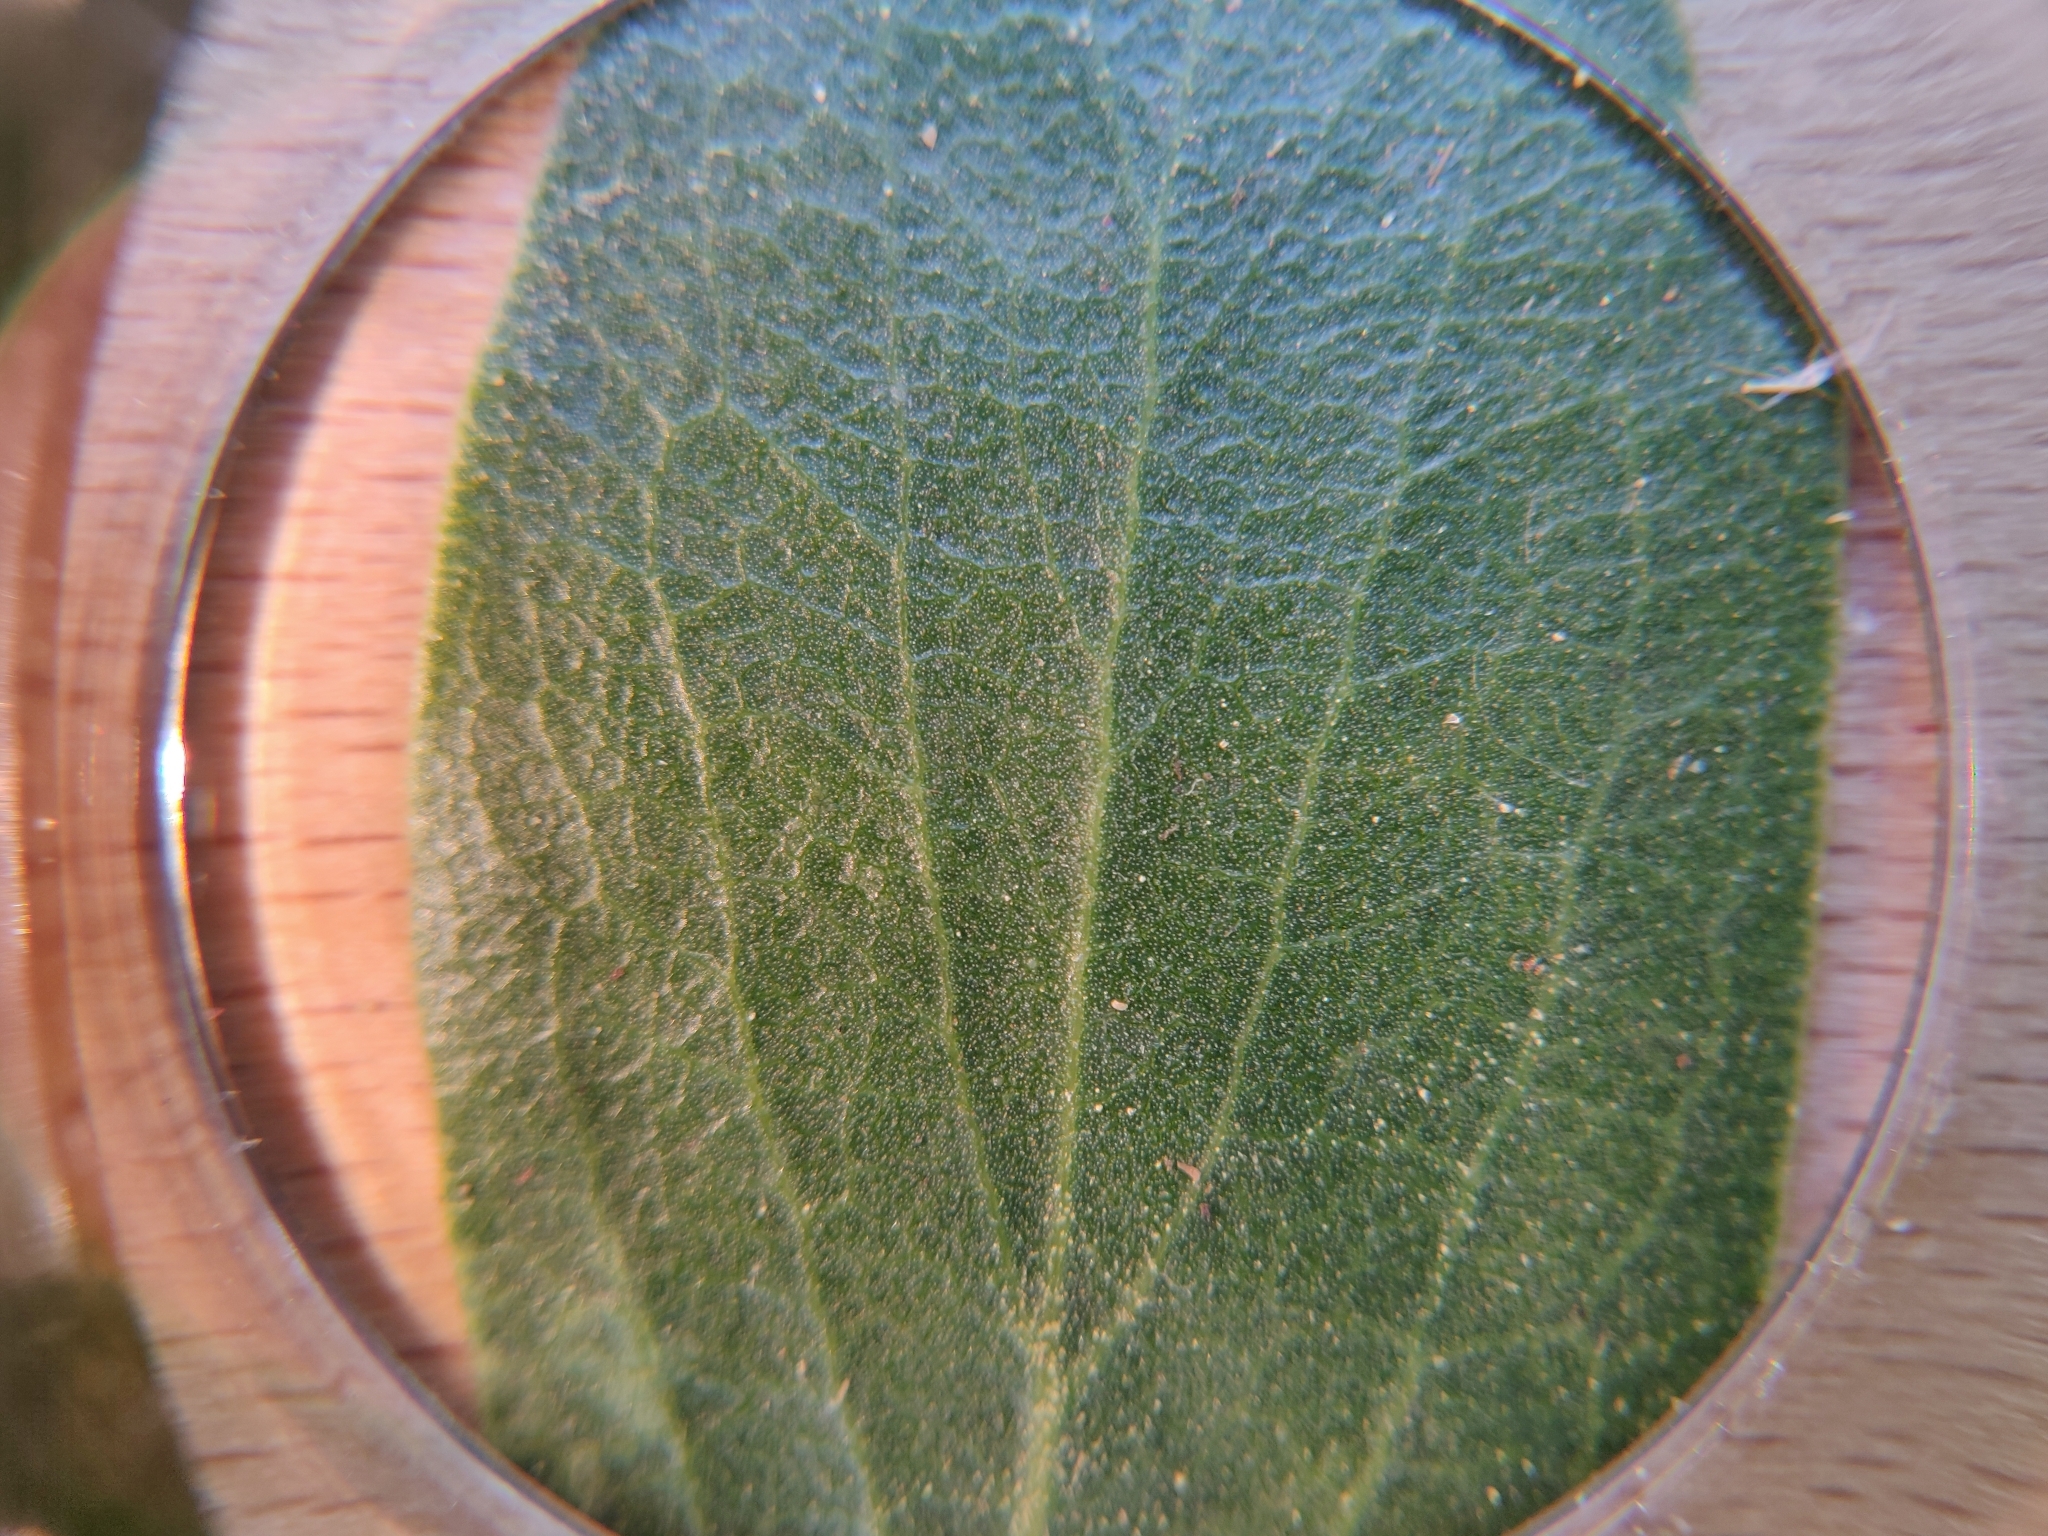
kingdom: Plantae
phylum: Tracheophyta
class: Magnoliopsida
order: Ericales
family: Ericaceae
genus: Arctostaphylos
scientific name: Arctostaphylos patula
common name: Green-leaf manzanita
